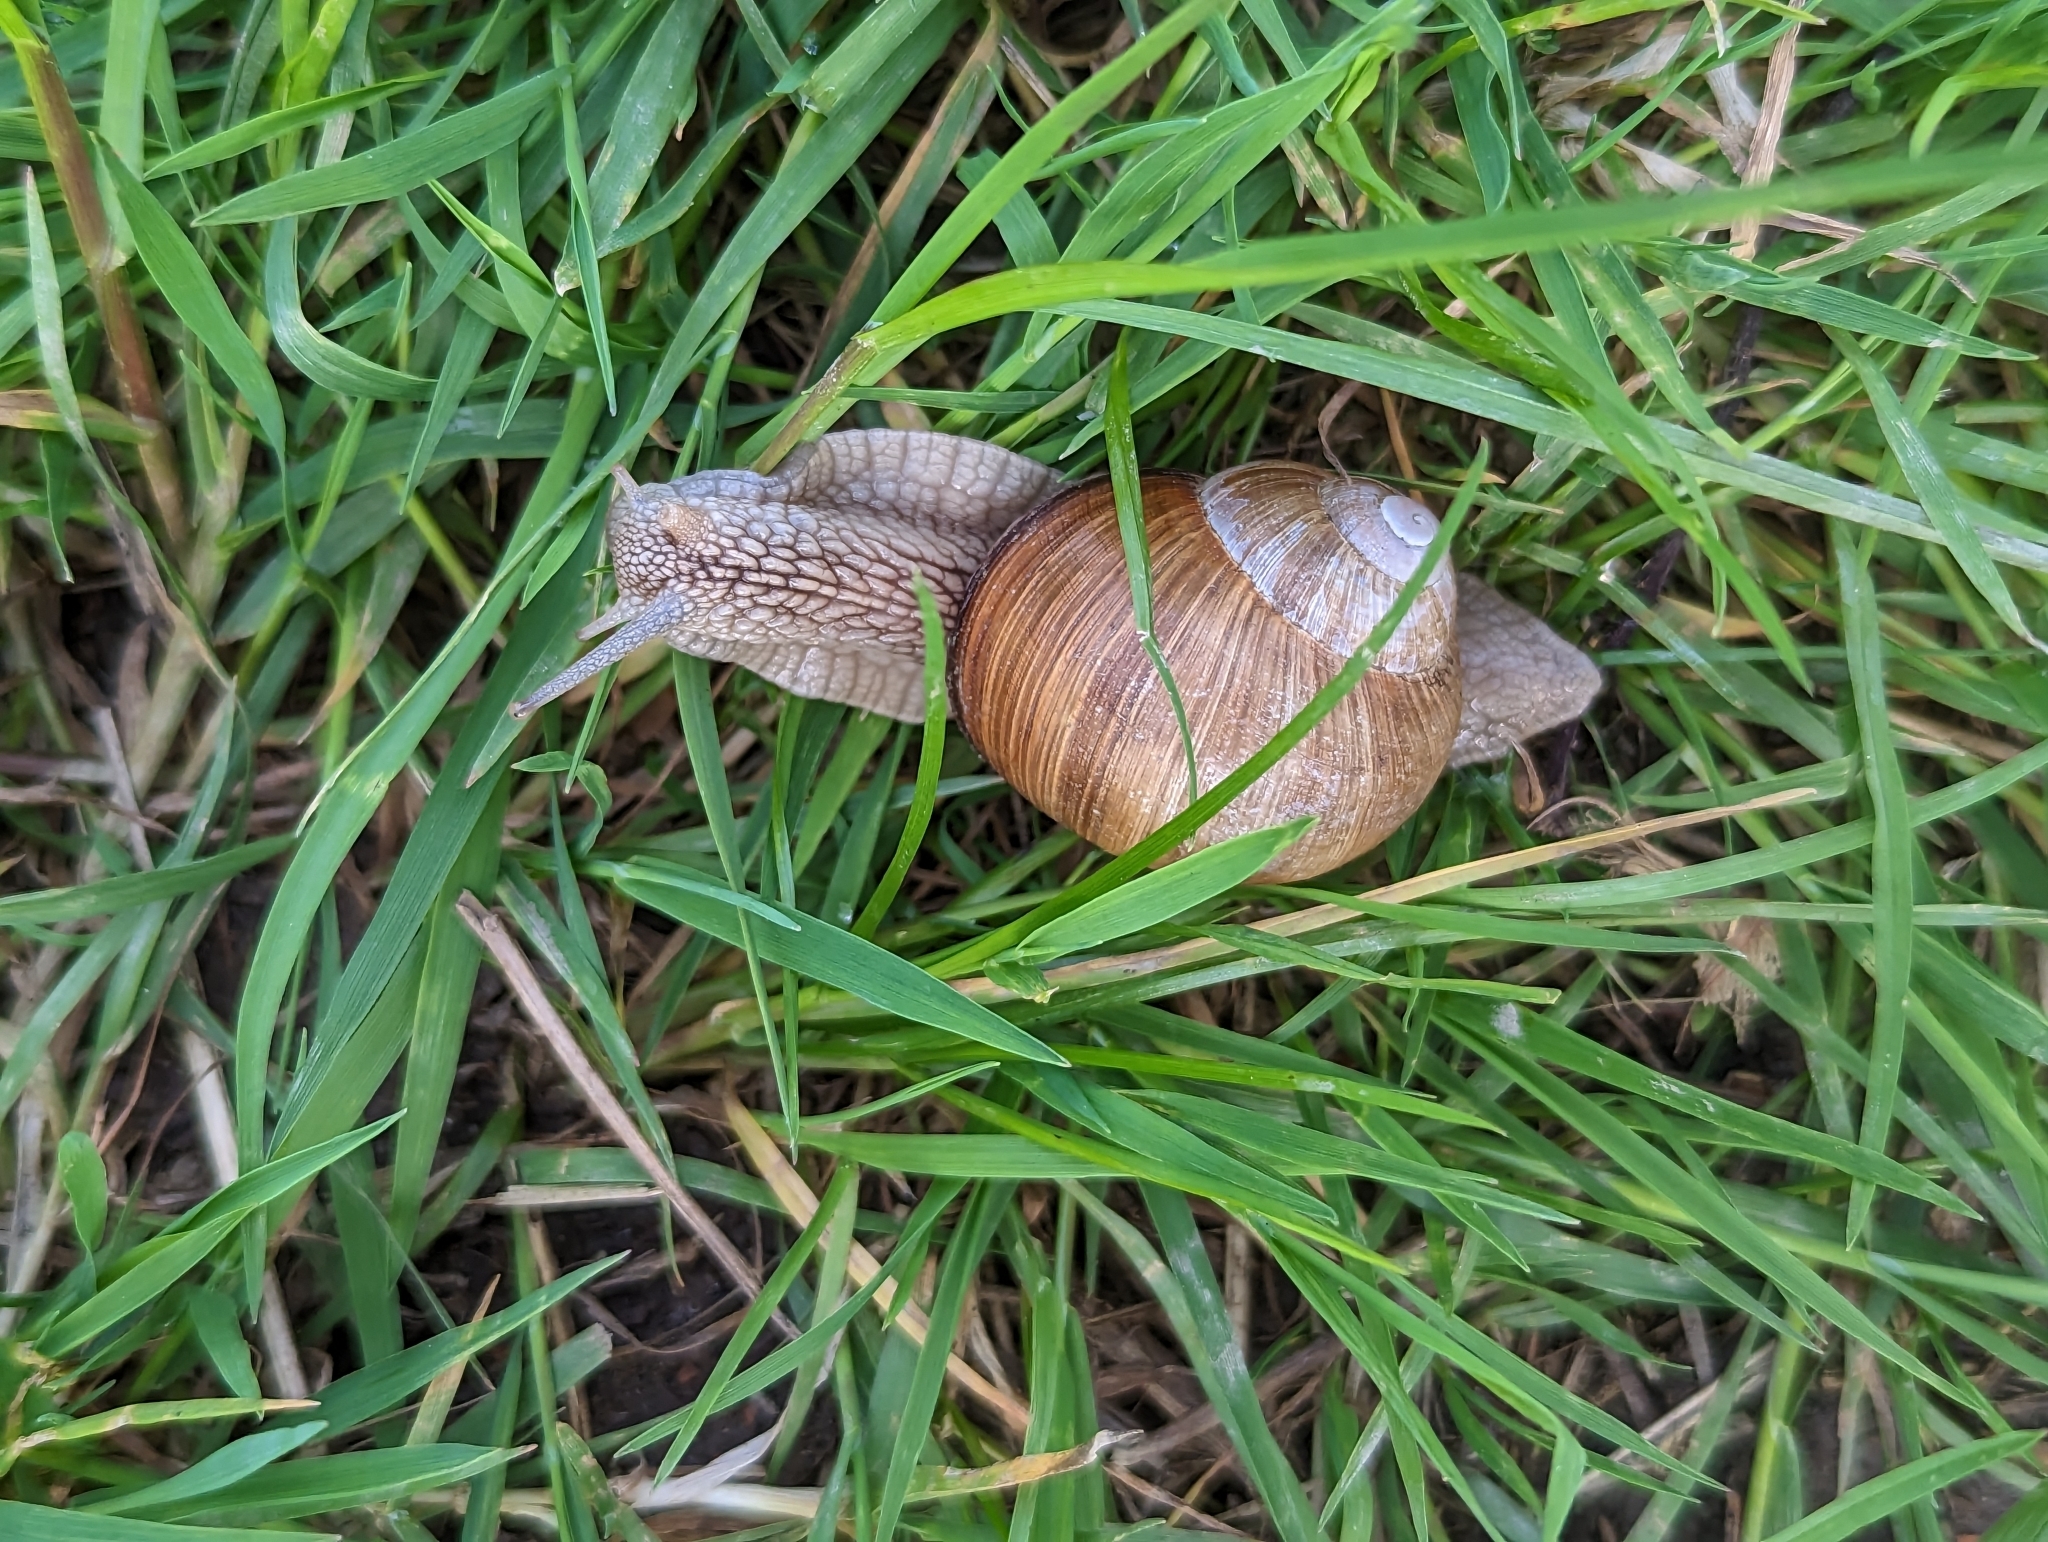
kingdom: Animalia
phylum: Mollusca
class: Gastropoda
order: Stylommatophora
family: Helicidae
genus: Helix
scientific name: Helix pomatia
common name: Roman snail
